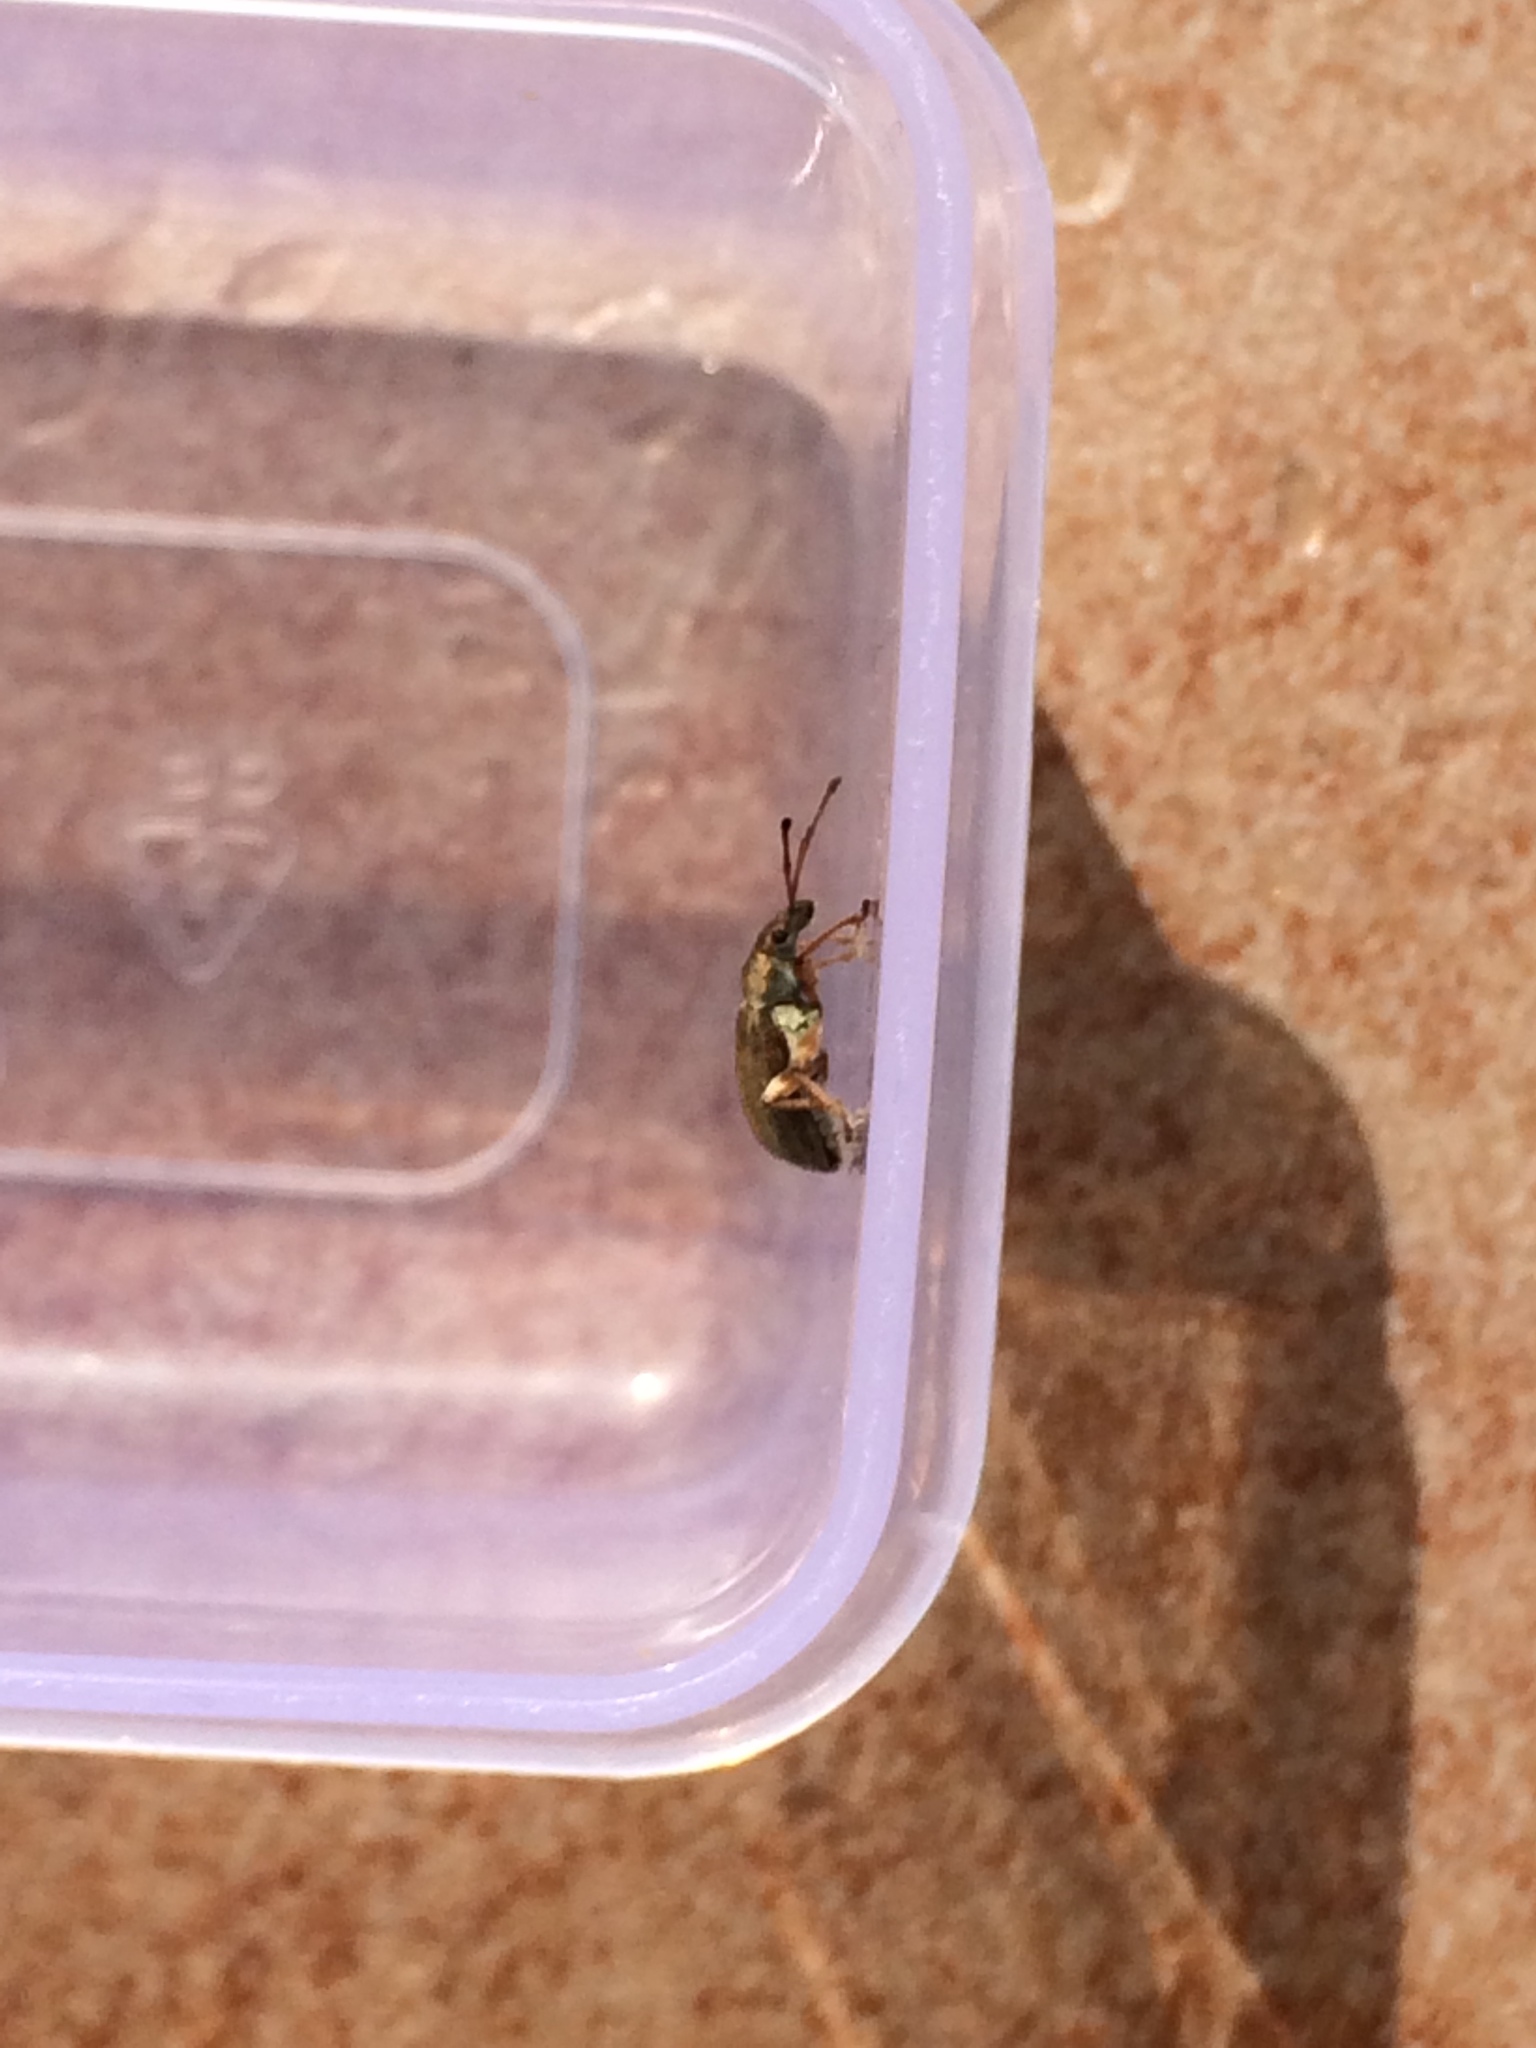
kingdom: Animalia
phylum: Arthropoda
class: Insecta
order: Coleoptera
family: Curculionidae
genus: Phyllobius
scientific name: Phyllobius pyri
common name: Common leaf weevil
